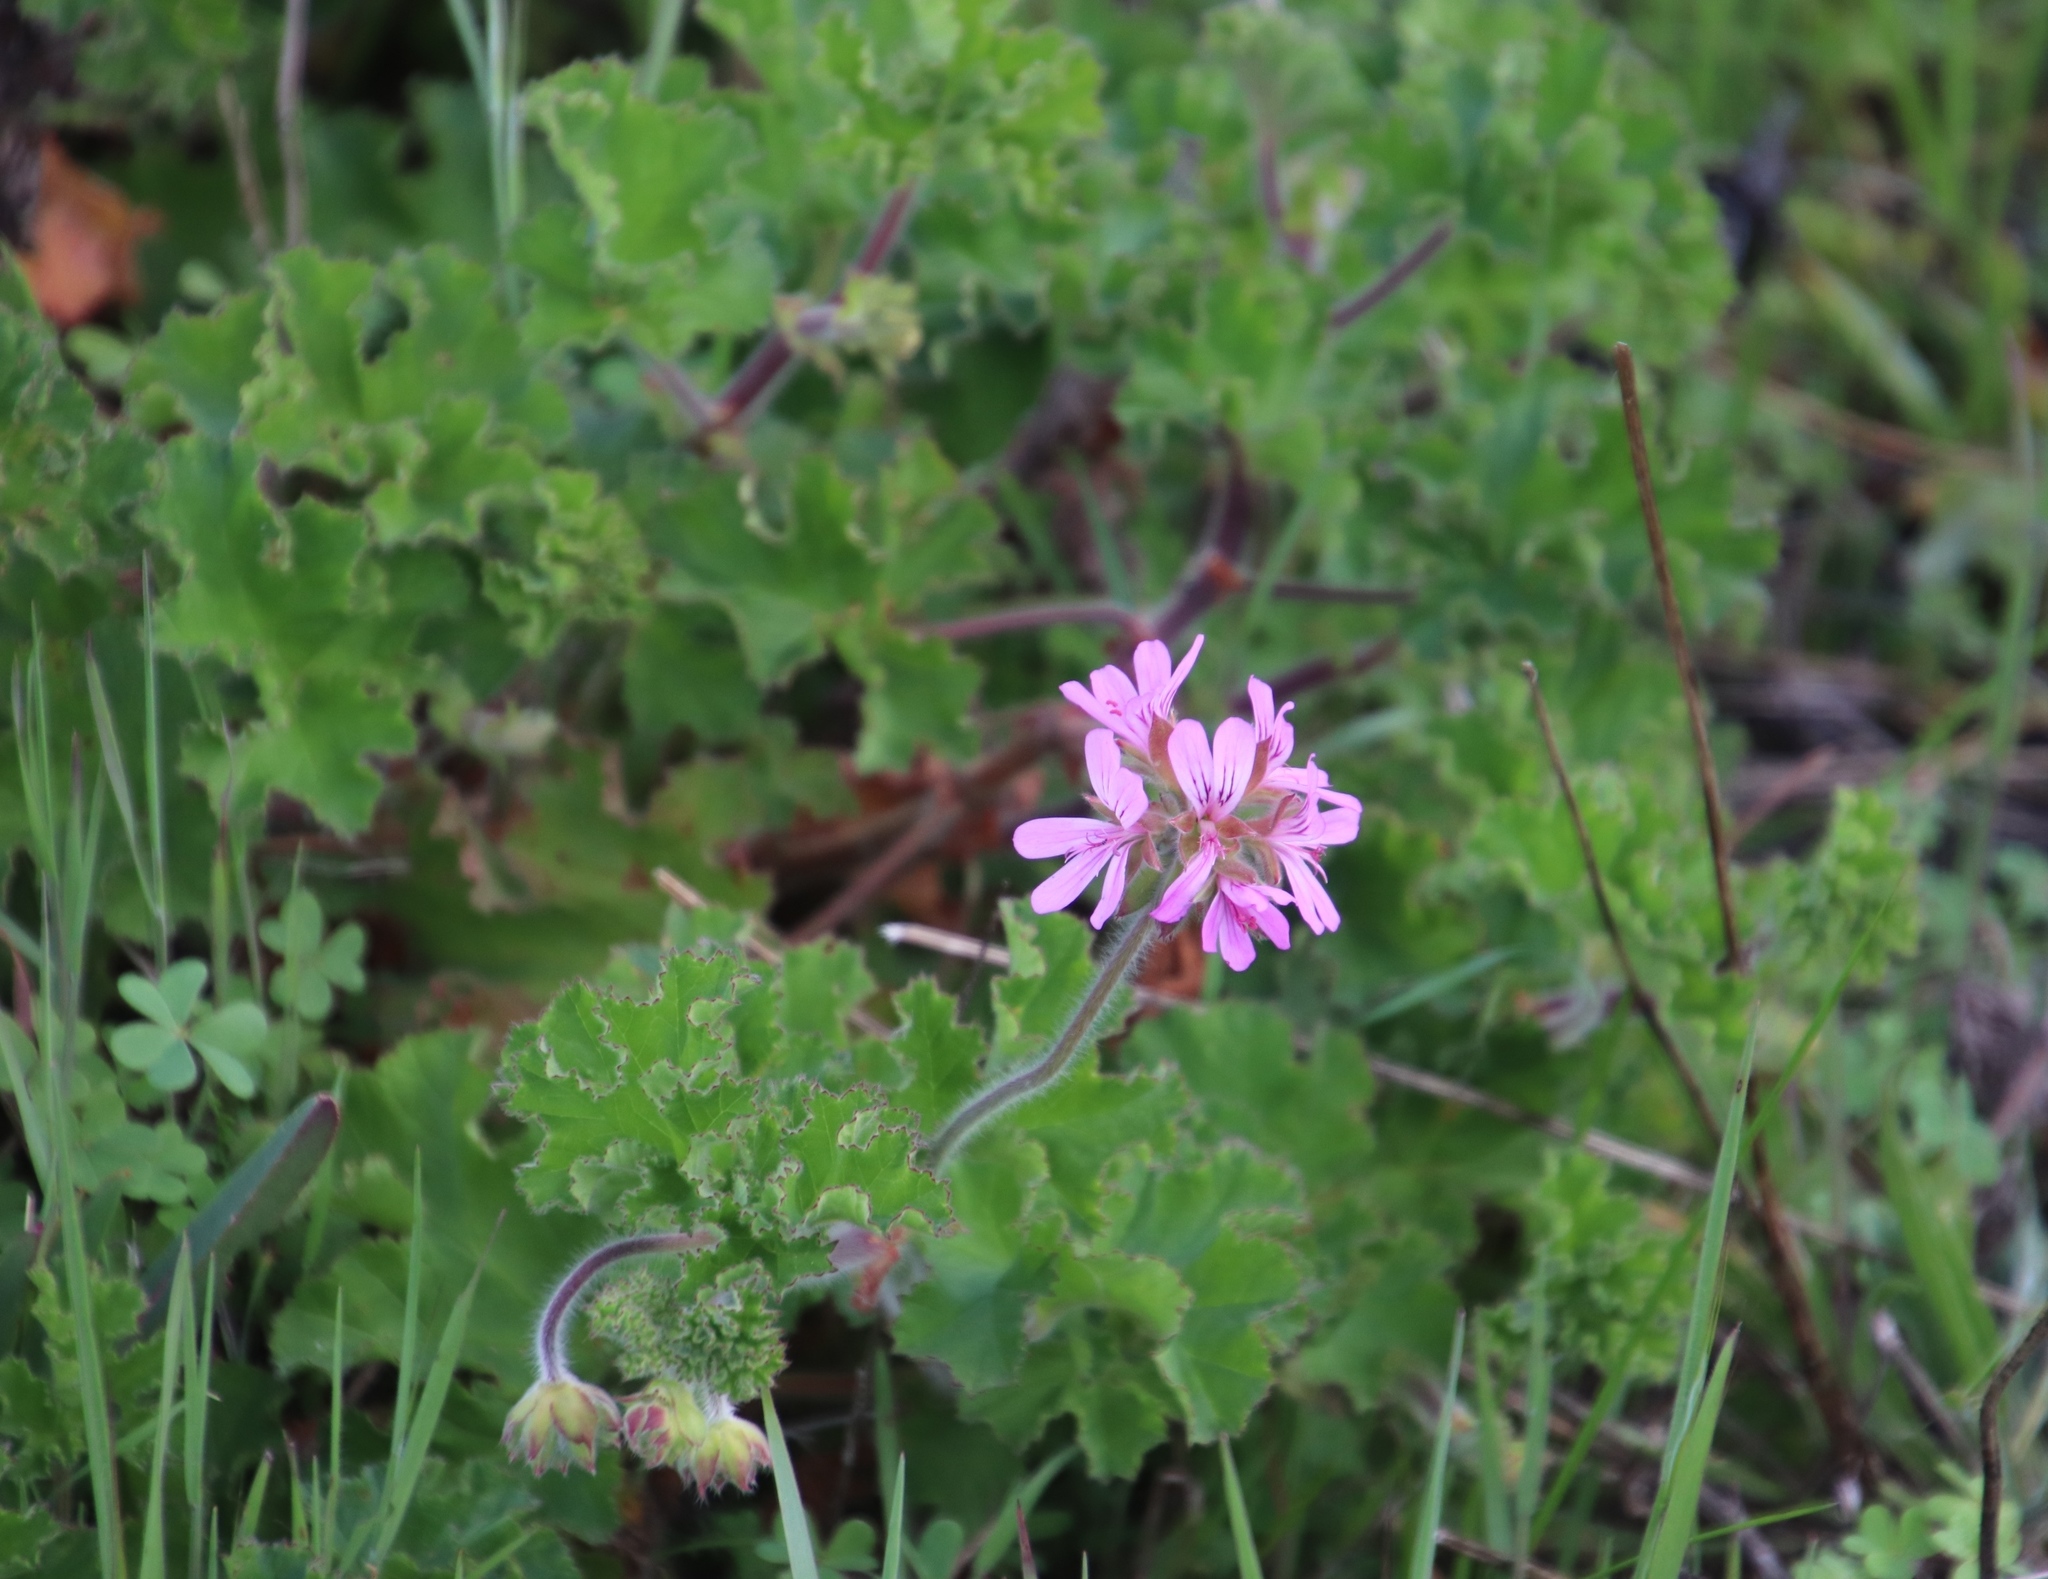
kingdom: Plantae
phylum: Tracheophyta
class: Magnoliopsida
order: Geraniales
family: Geraniaceae
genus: Pelargonium
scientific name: Pelargonium capitatum
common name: Rose scented geranium
